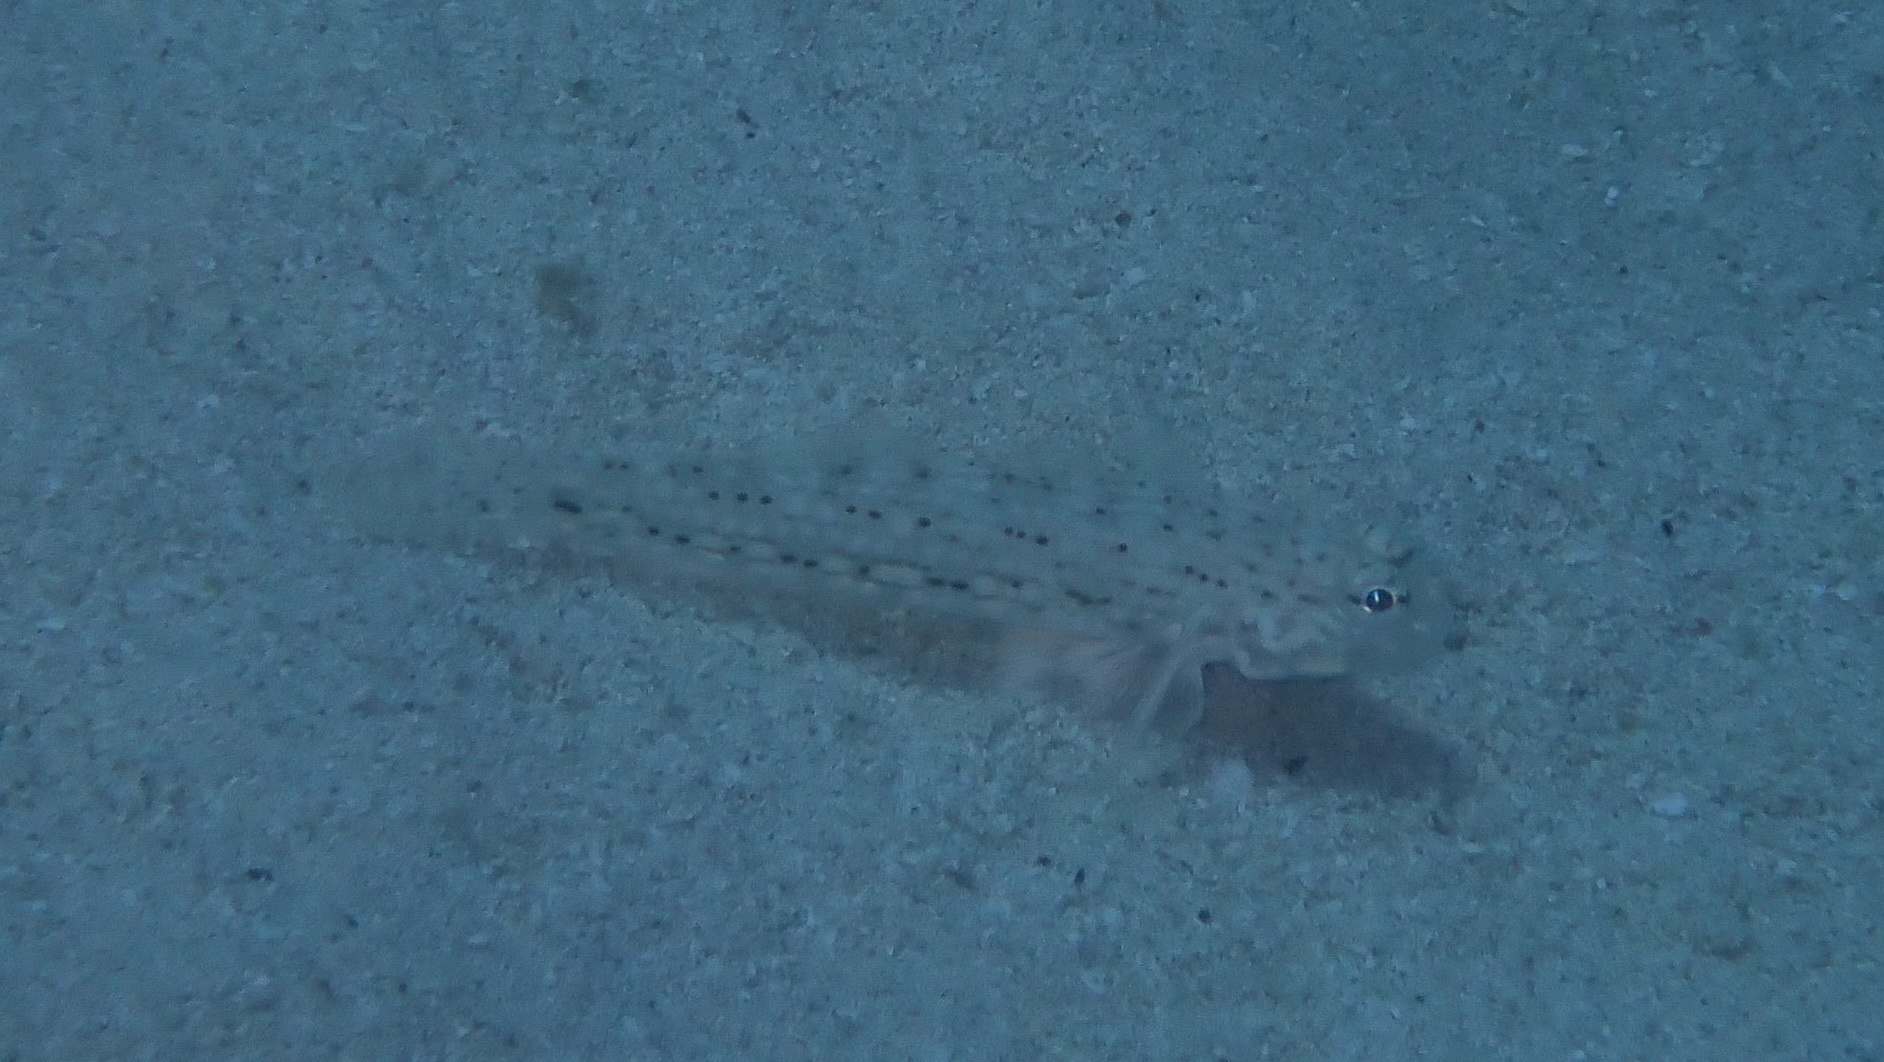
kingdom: Animalia
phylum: Chordata
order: Perciformes
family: Gobiidae
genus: Istigobius
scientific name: Istigobius decoratus
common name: Decorated goby
